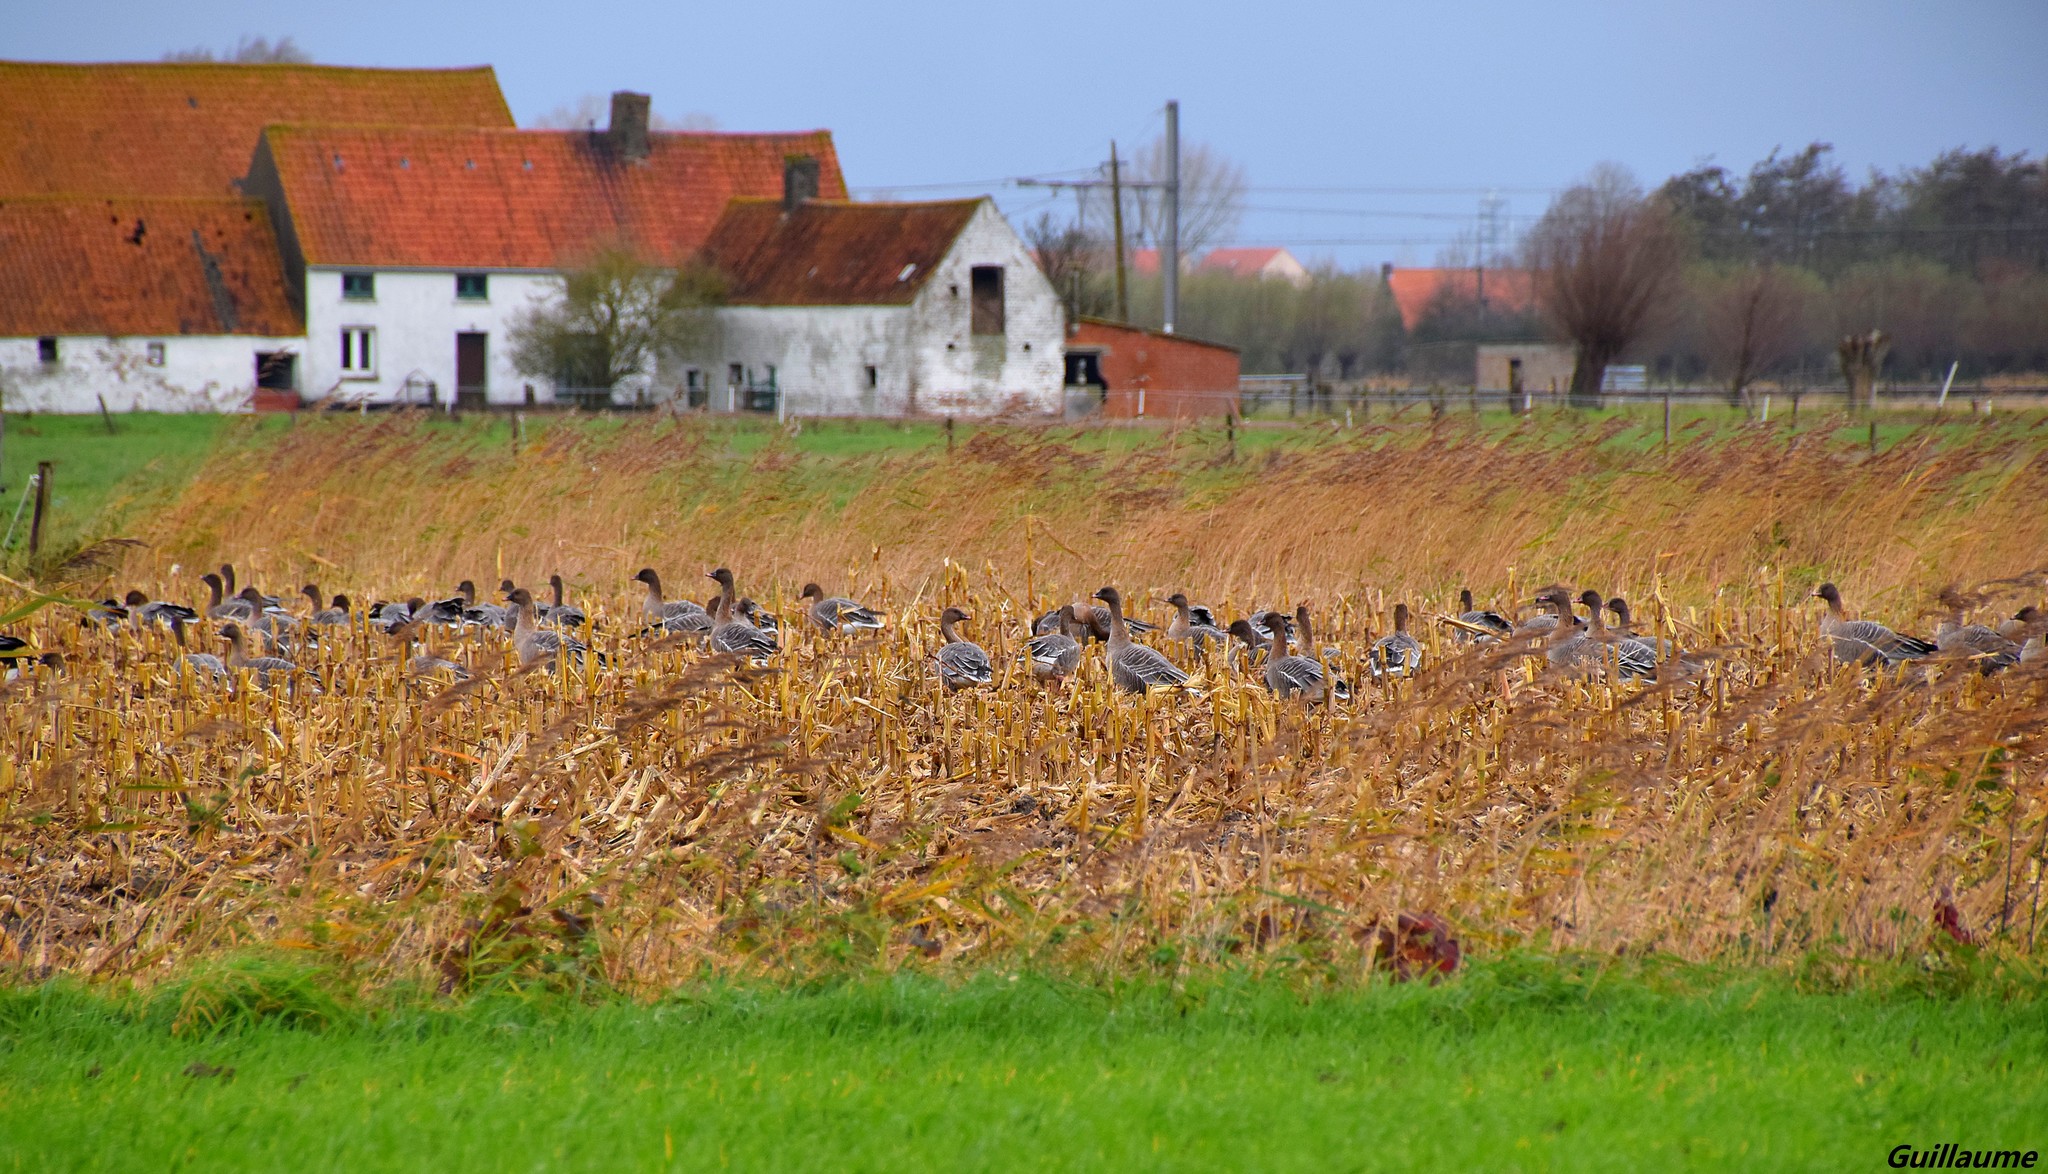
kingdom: Animalia
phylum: Chordata
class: Aves
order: Anseriformes
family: Anatidae
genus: Anser
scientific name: Anser brachyrhynchus
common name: Pink-footed goose
